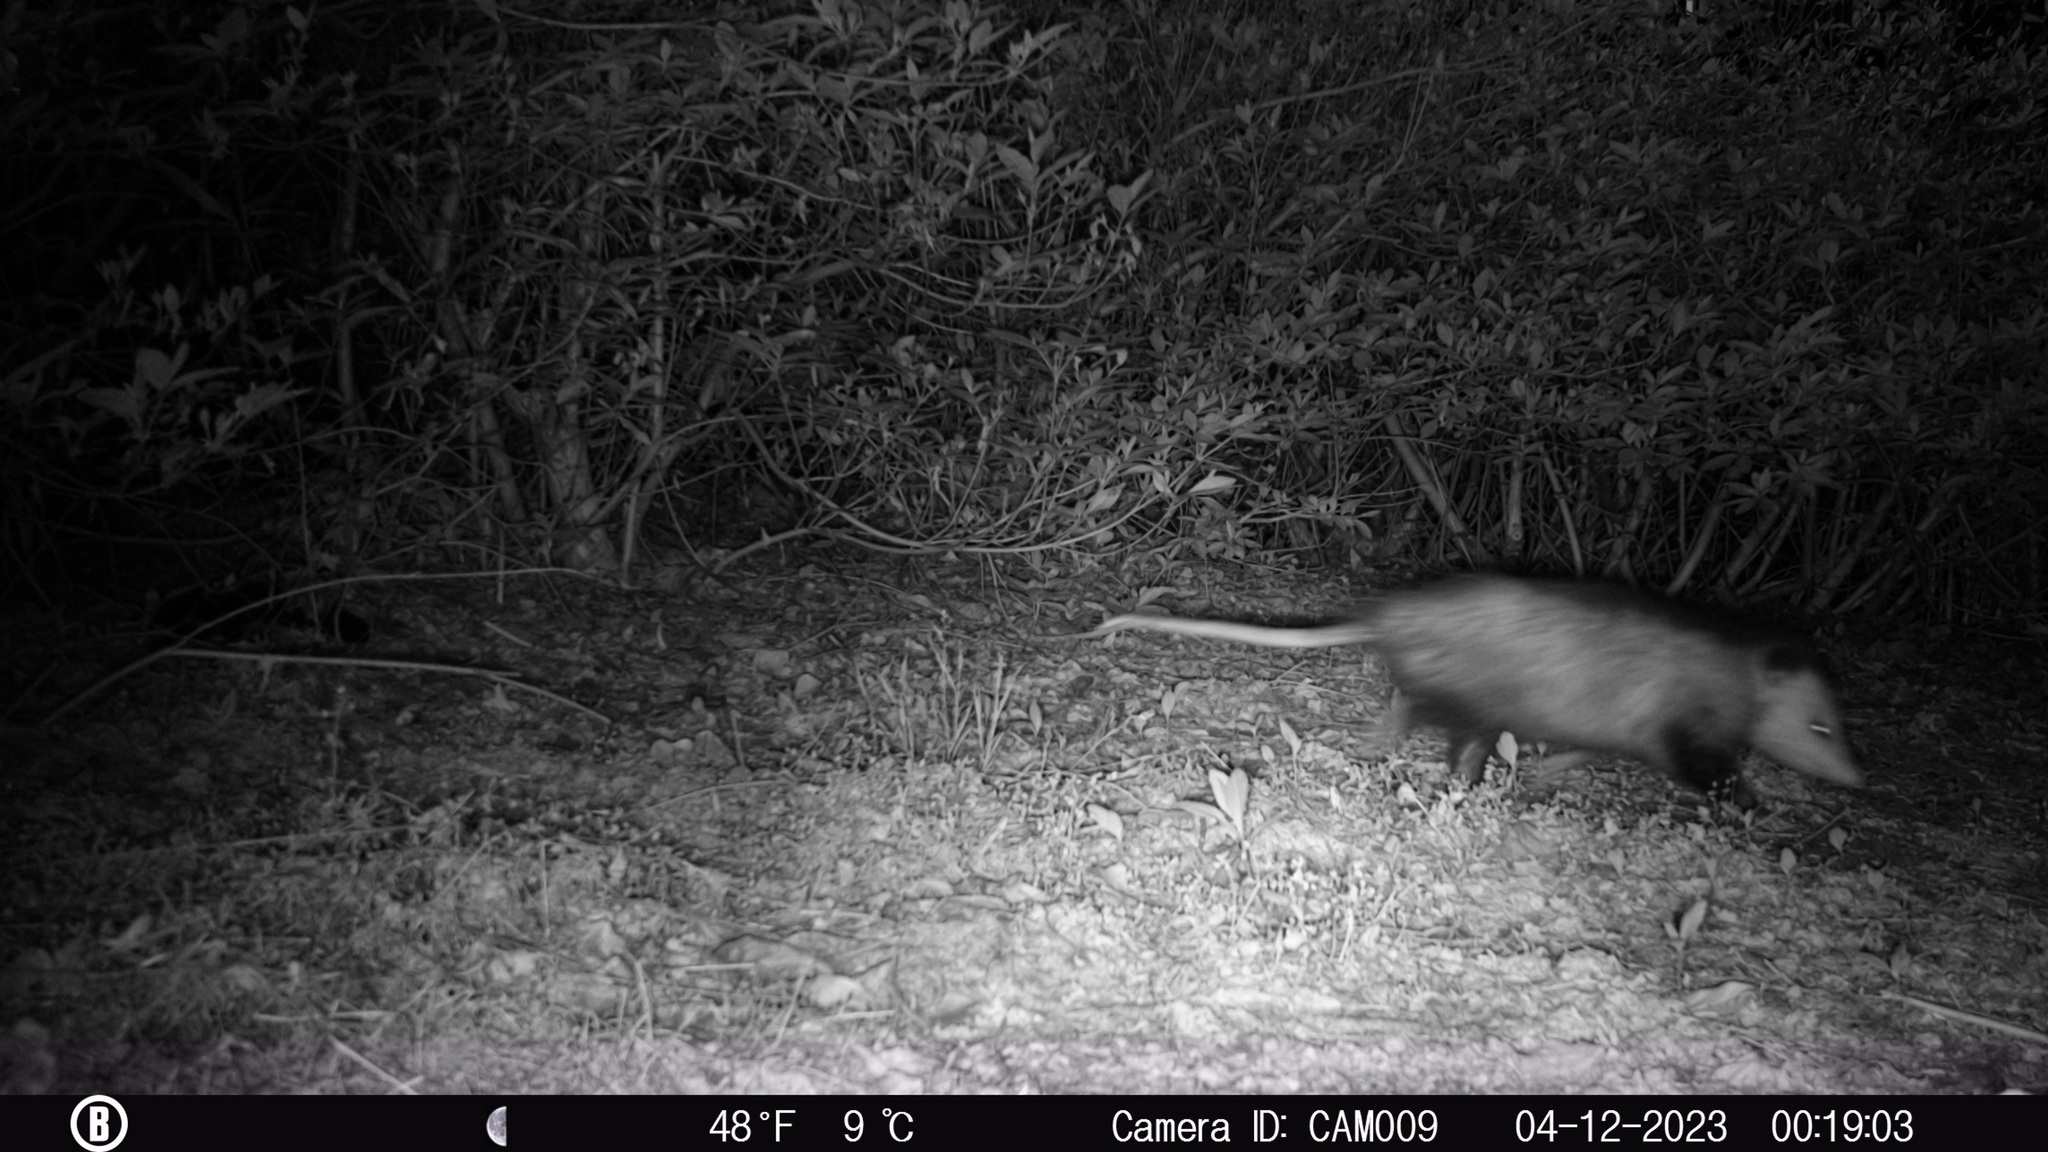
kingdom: Animalia
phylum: Chordata
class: Mammalia
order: Didelphimorphia
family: Didelphidae
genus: Didelphis
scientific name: Didelphis virginiana
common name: Virginia opossum
